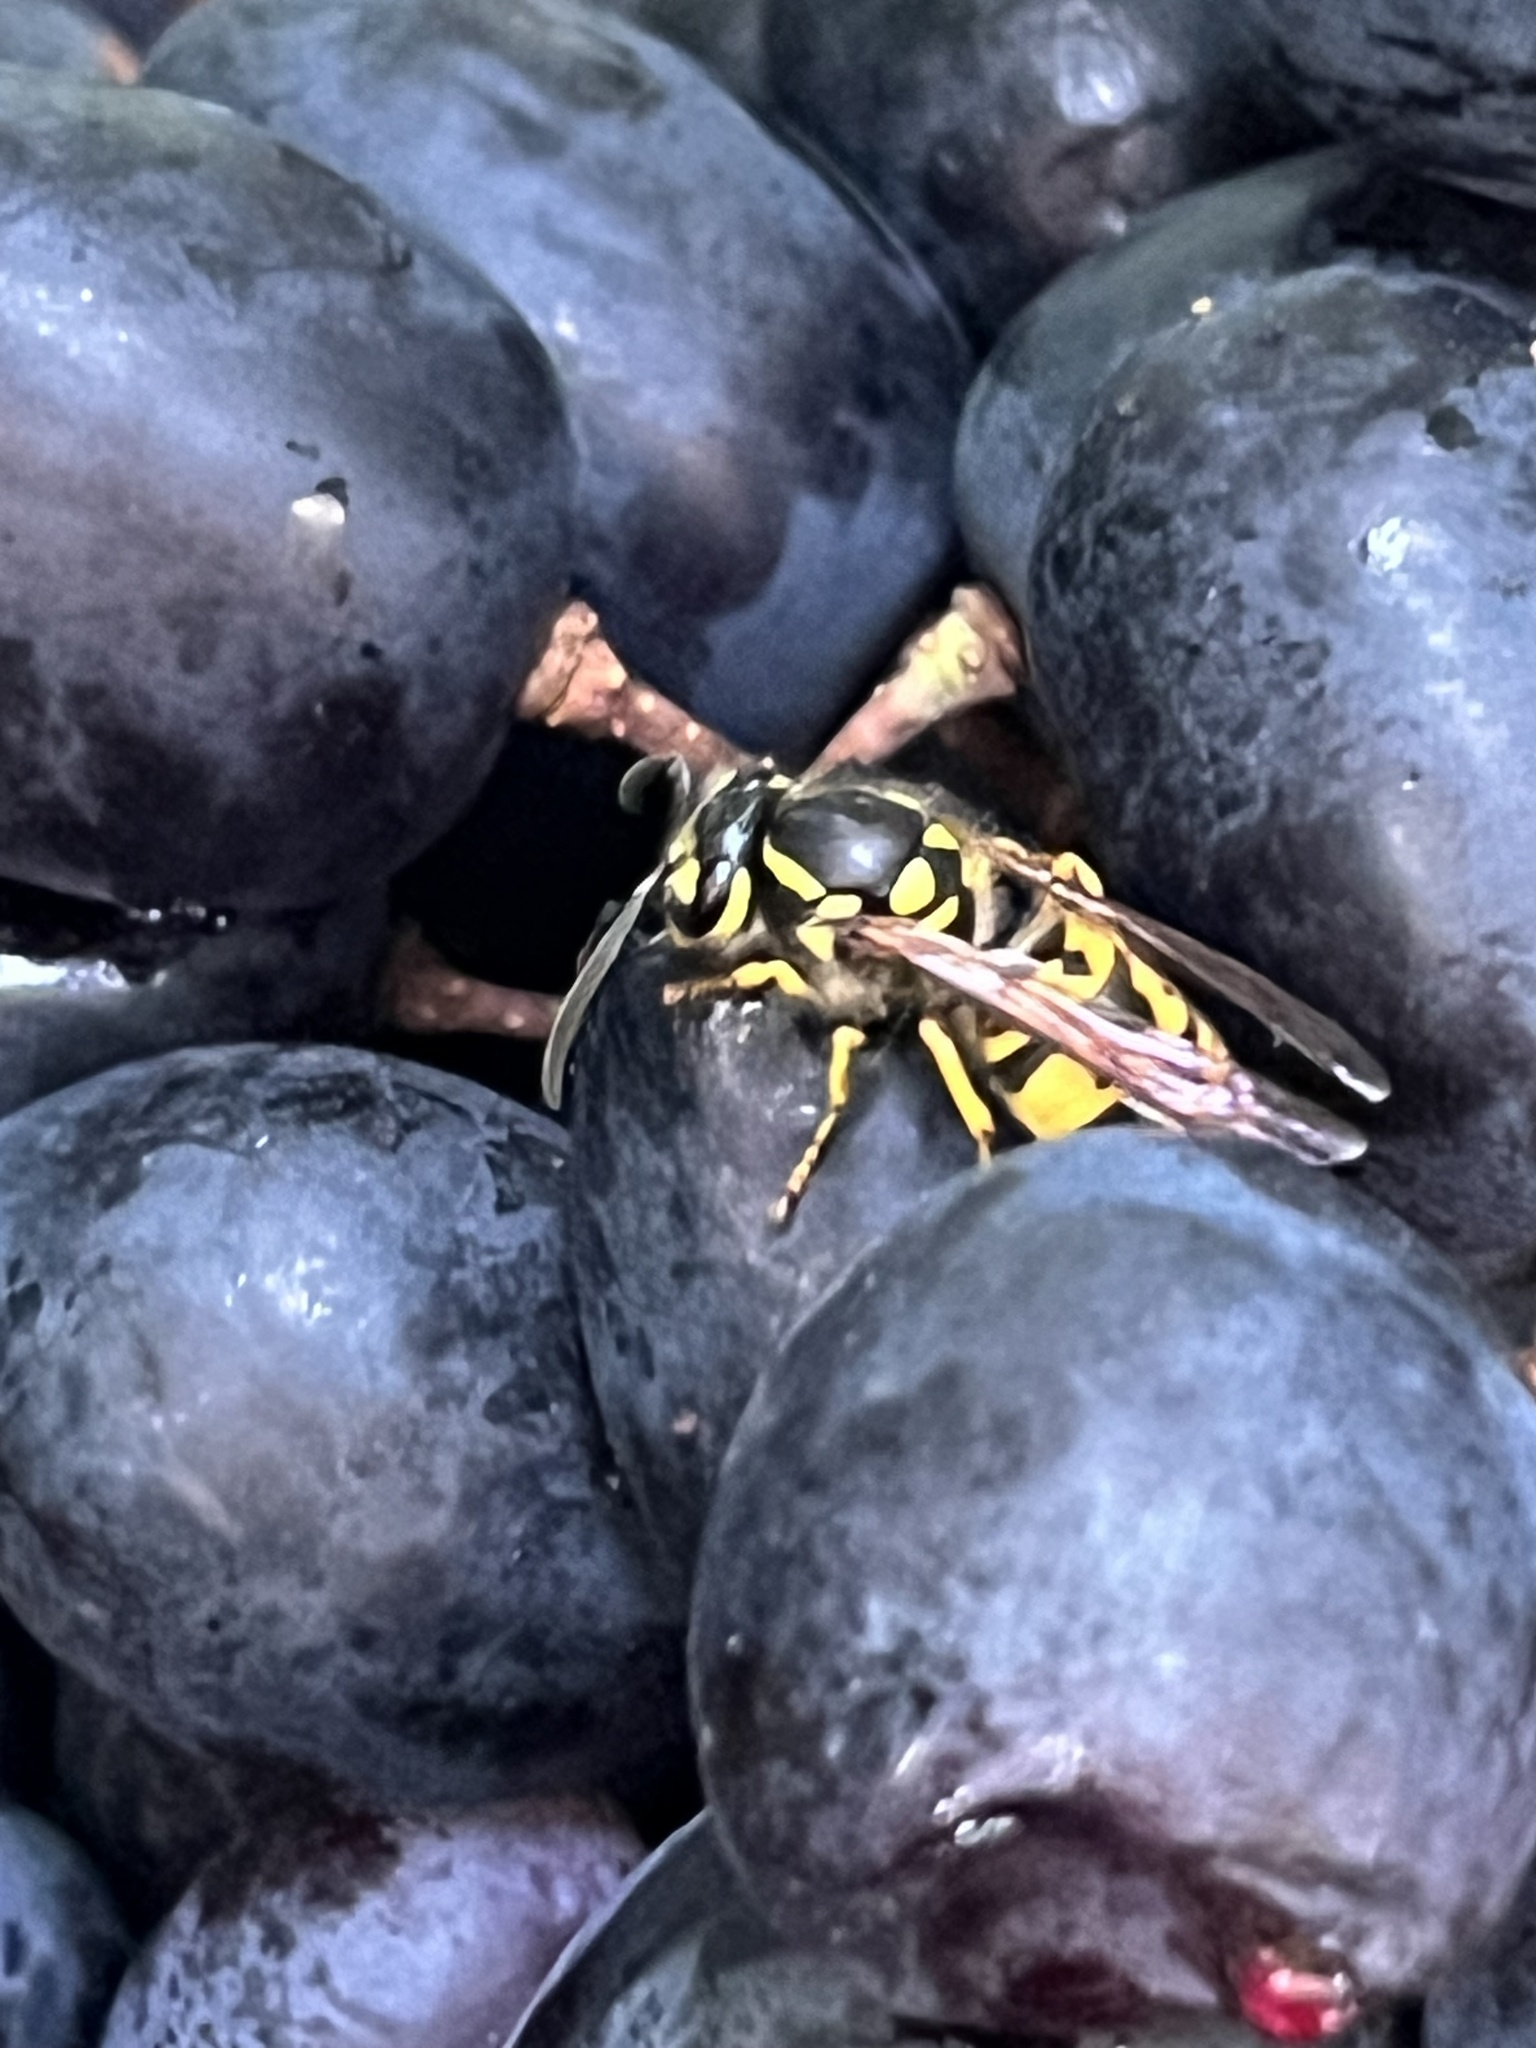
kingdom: Animalia
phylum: Arthropoda
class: Insecta
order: Hymenoptera
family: Vespidae
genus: Vespula
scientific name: Vespula germanica
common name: German wasp
